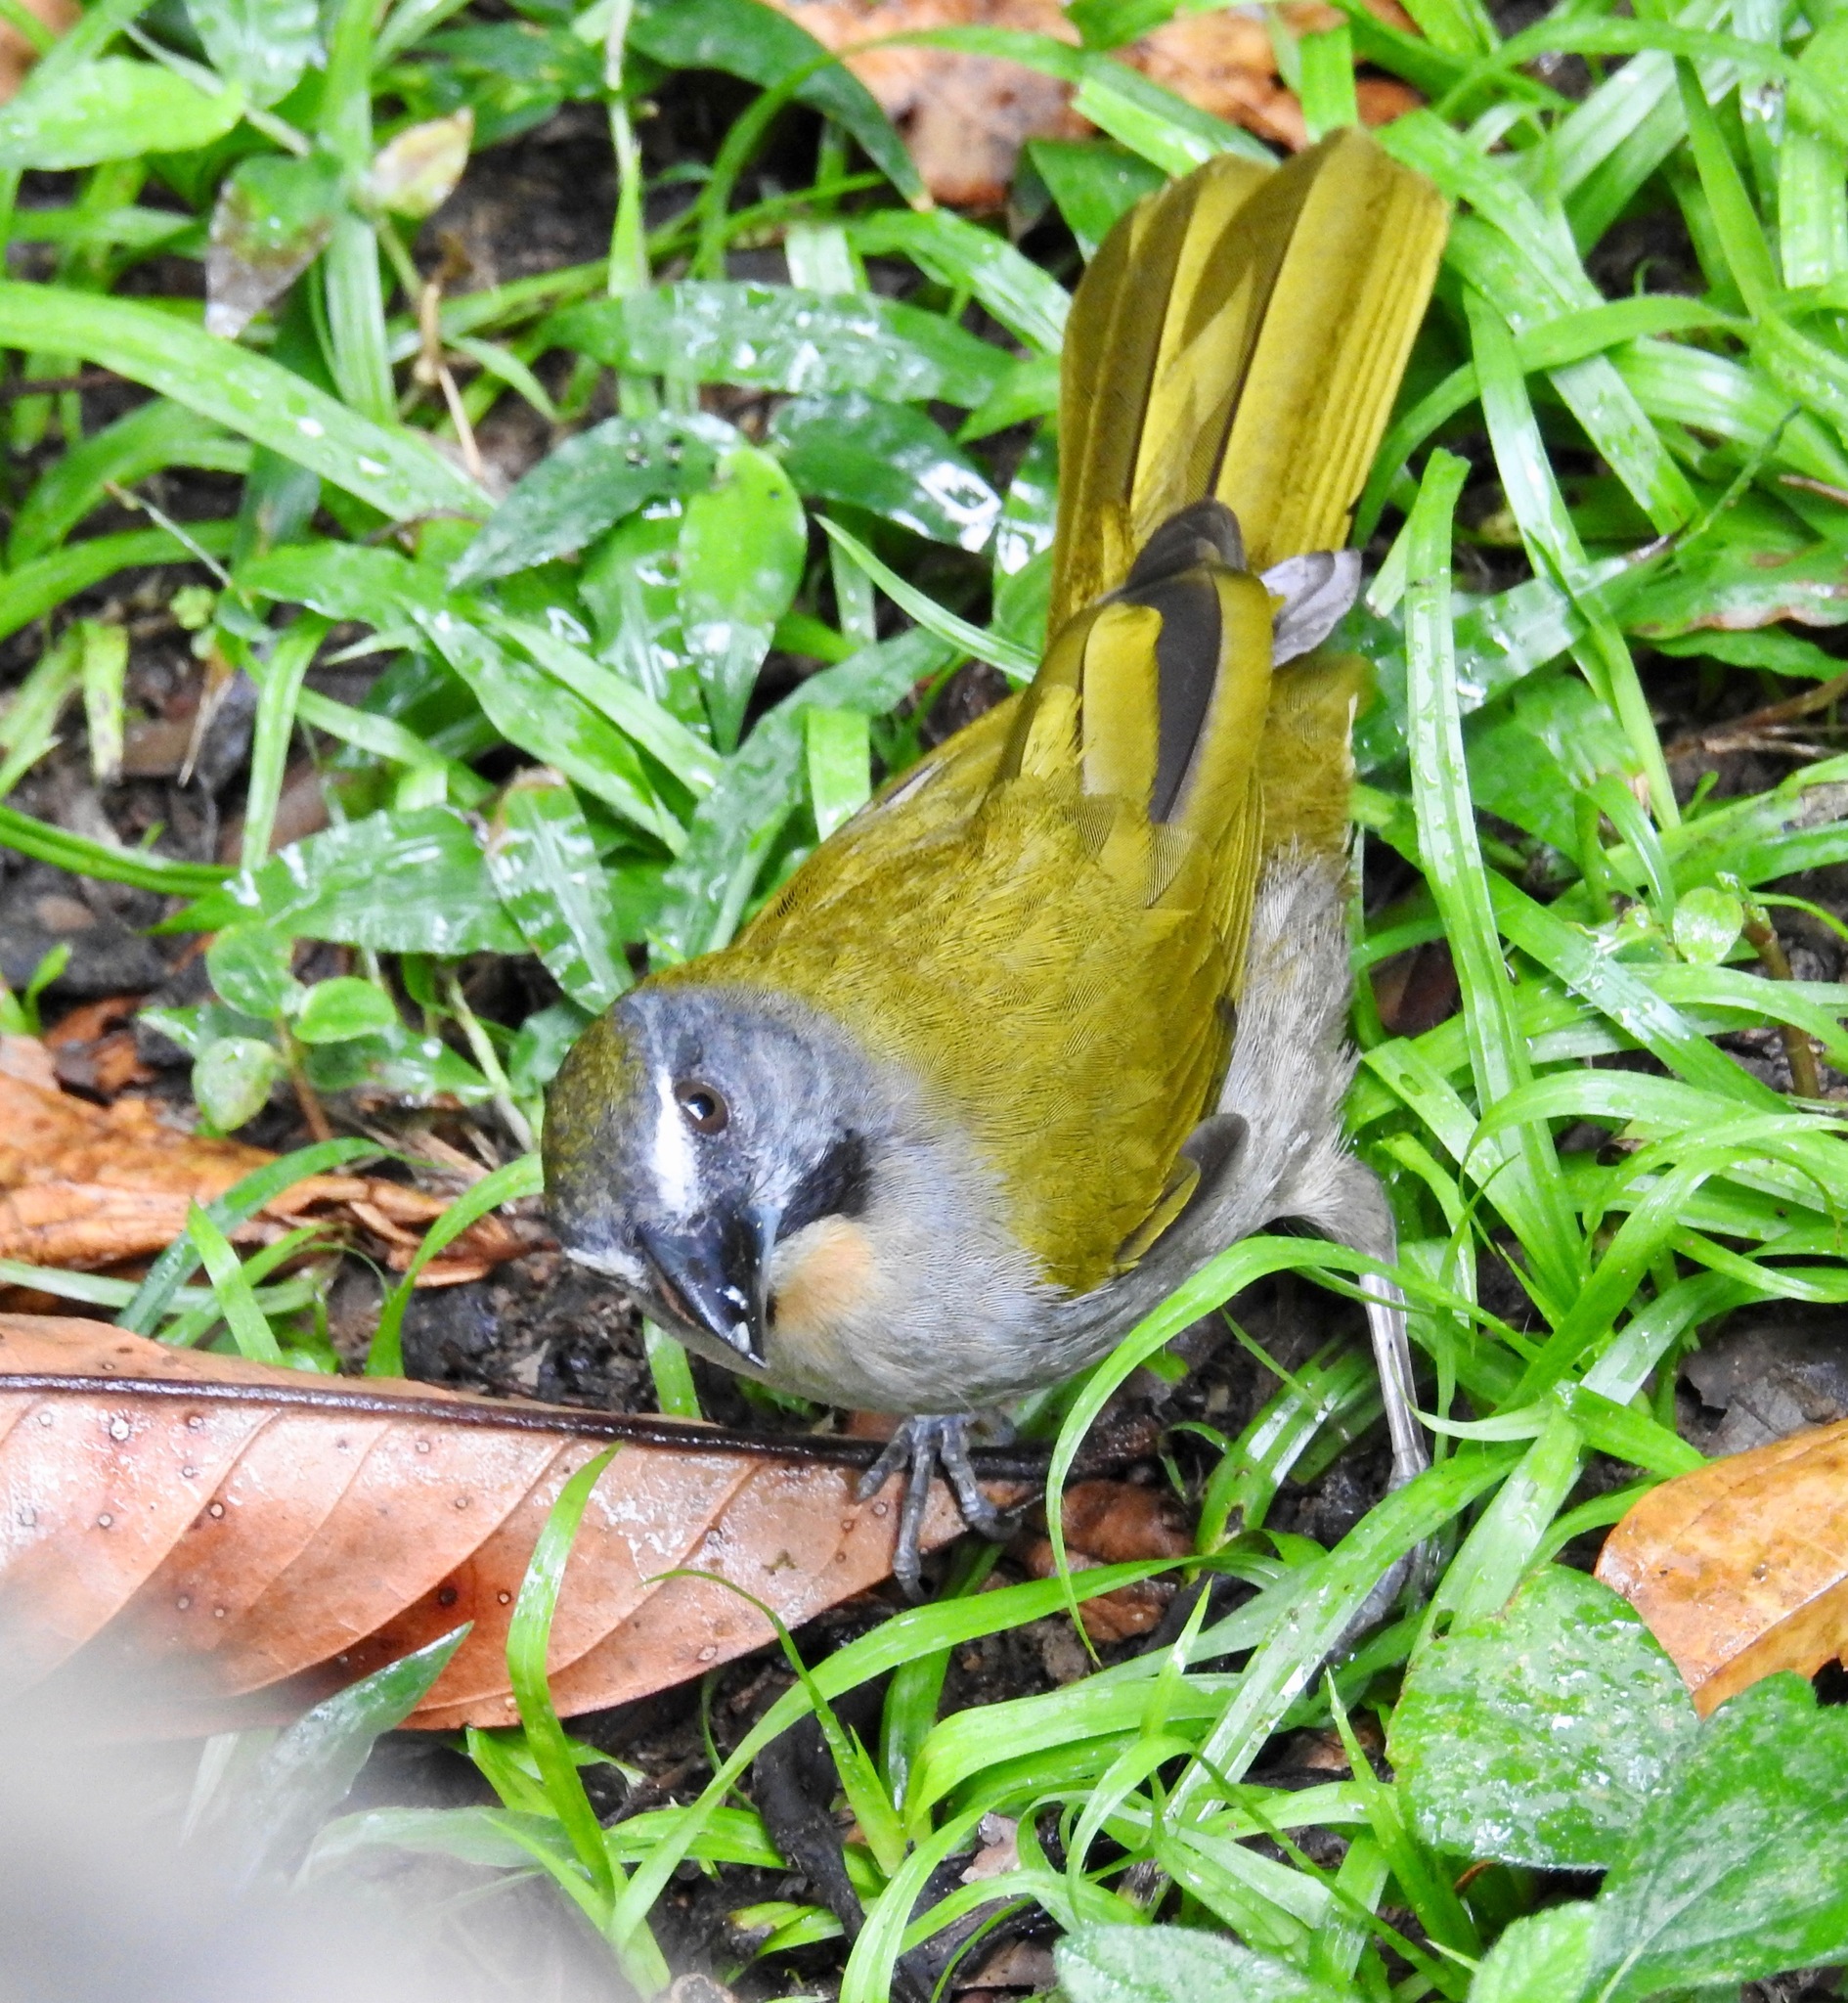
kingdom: Animalia
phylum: Chordata
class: Aves
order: Passeriformes
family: Thraupidae
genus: Saltator
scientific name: Saltator maximus
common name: Buff-throated saltator
